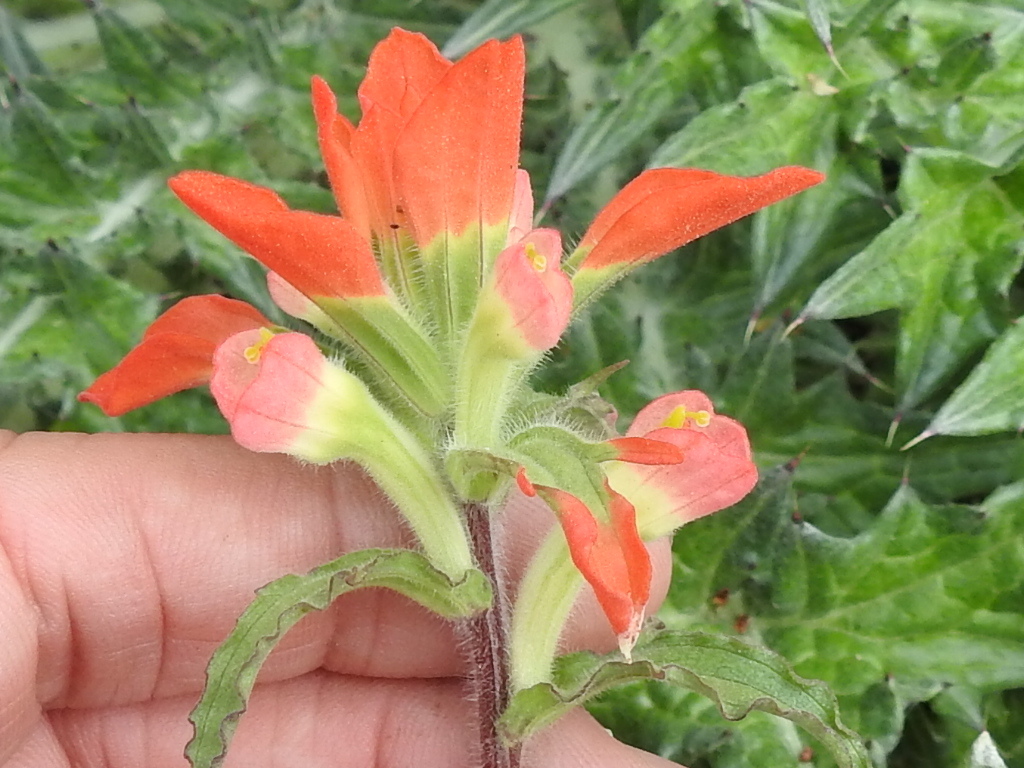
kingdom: Plantae
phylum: Tracheophyta
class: Magnoliopsida
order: Lamiales
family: Orobanchaceae
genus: Castilleja
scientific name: Castilleja indivisa
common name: Texas paintbrush
